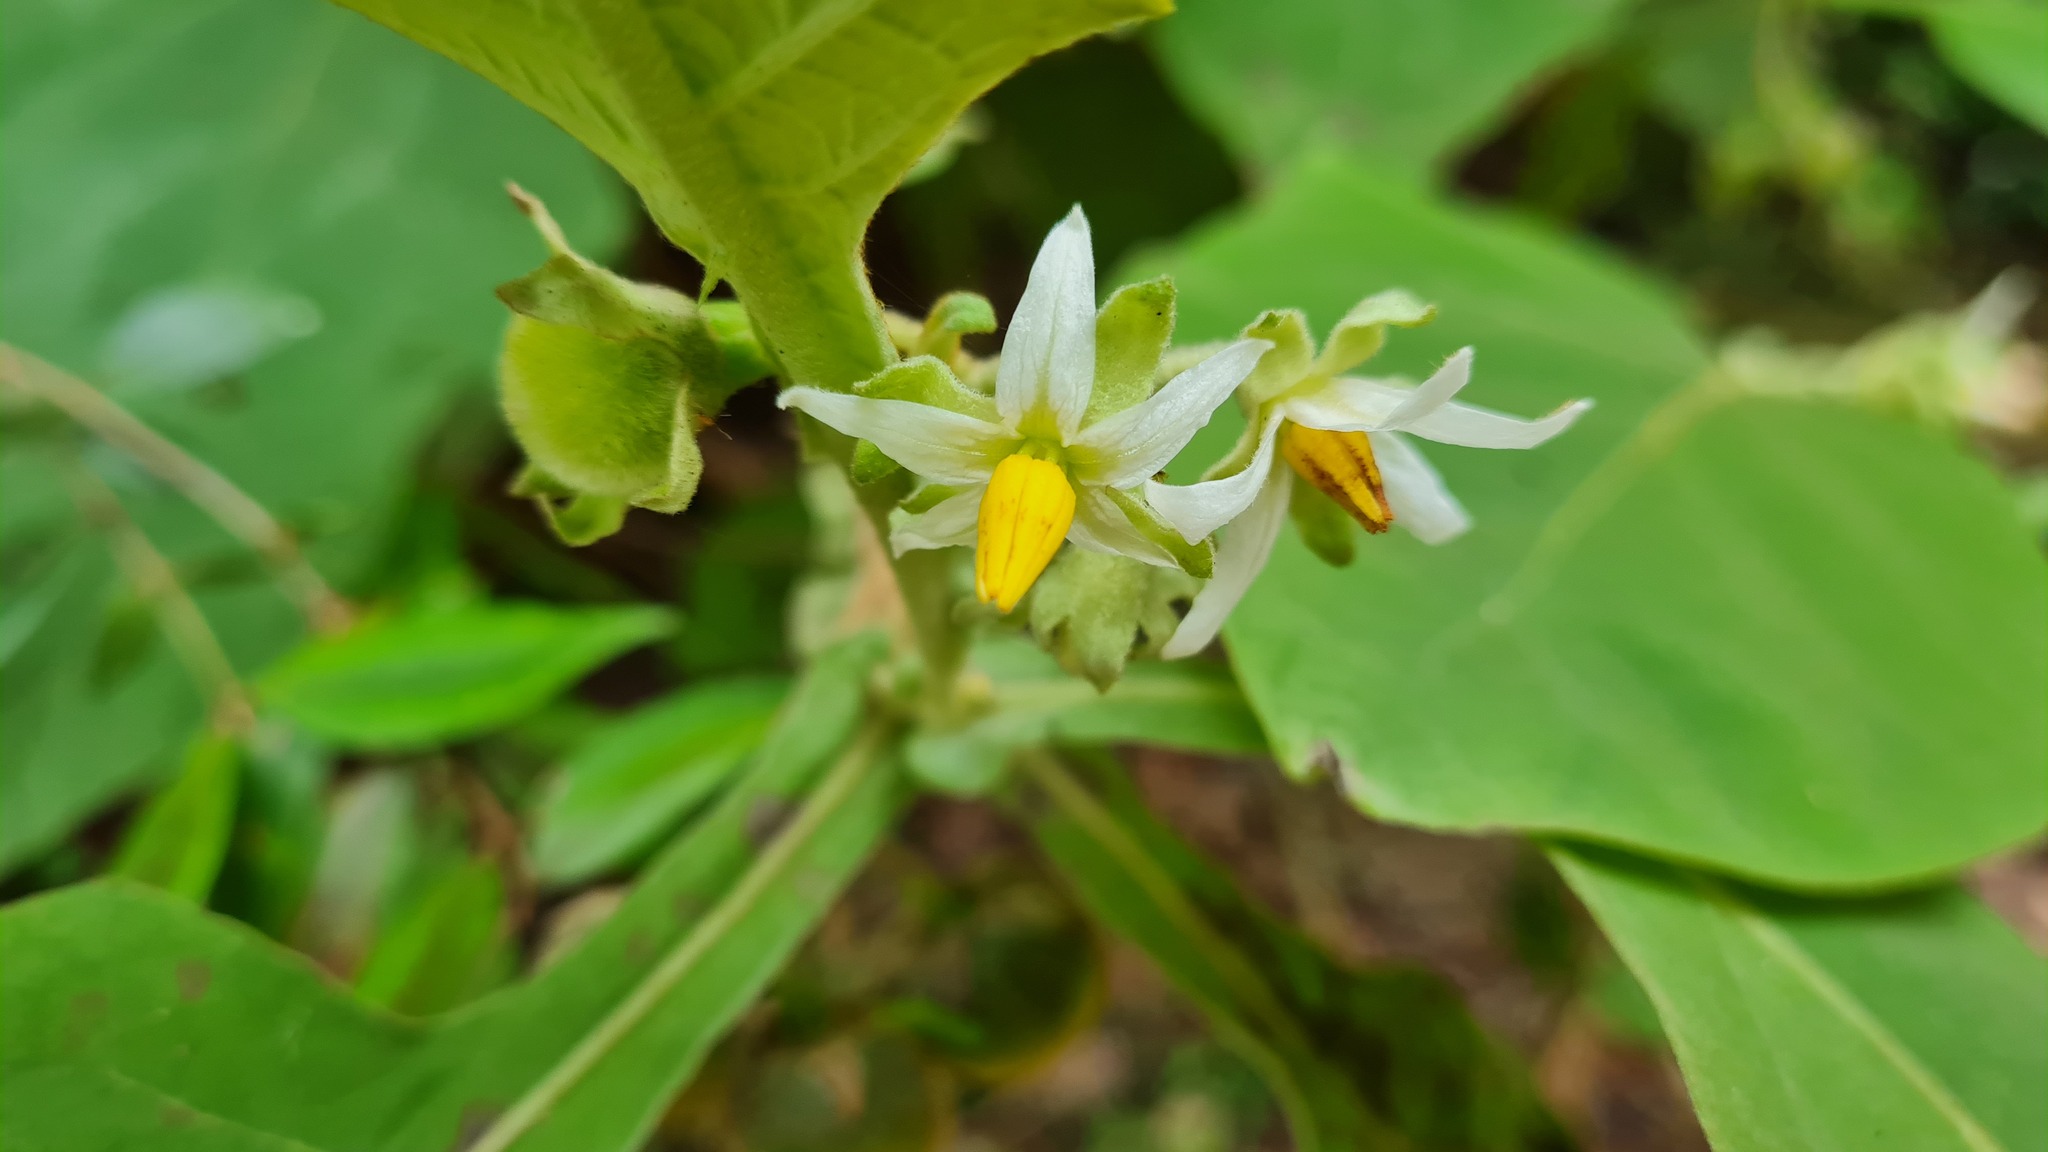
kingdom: Plantae
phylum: Tracheophyta
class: Magnoliopsida
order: Solanales
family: Solanaceae
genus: Solanum
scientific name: Solanum robustum
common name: Shrubby nightshade
